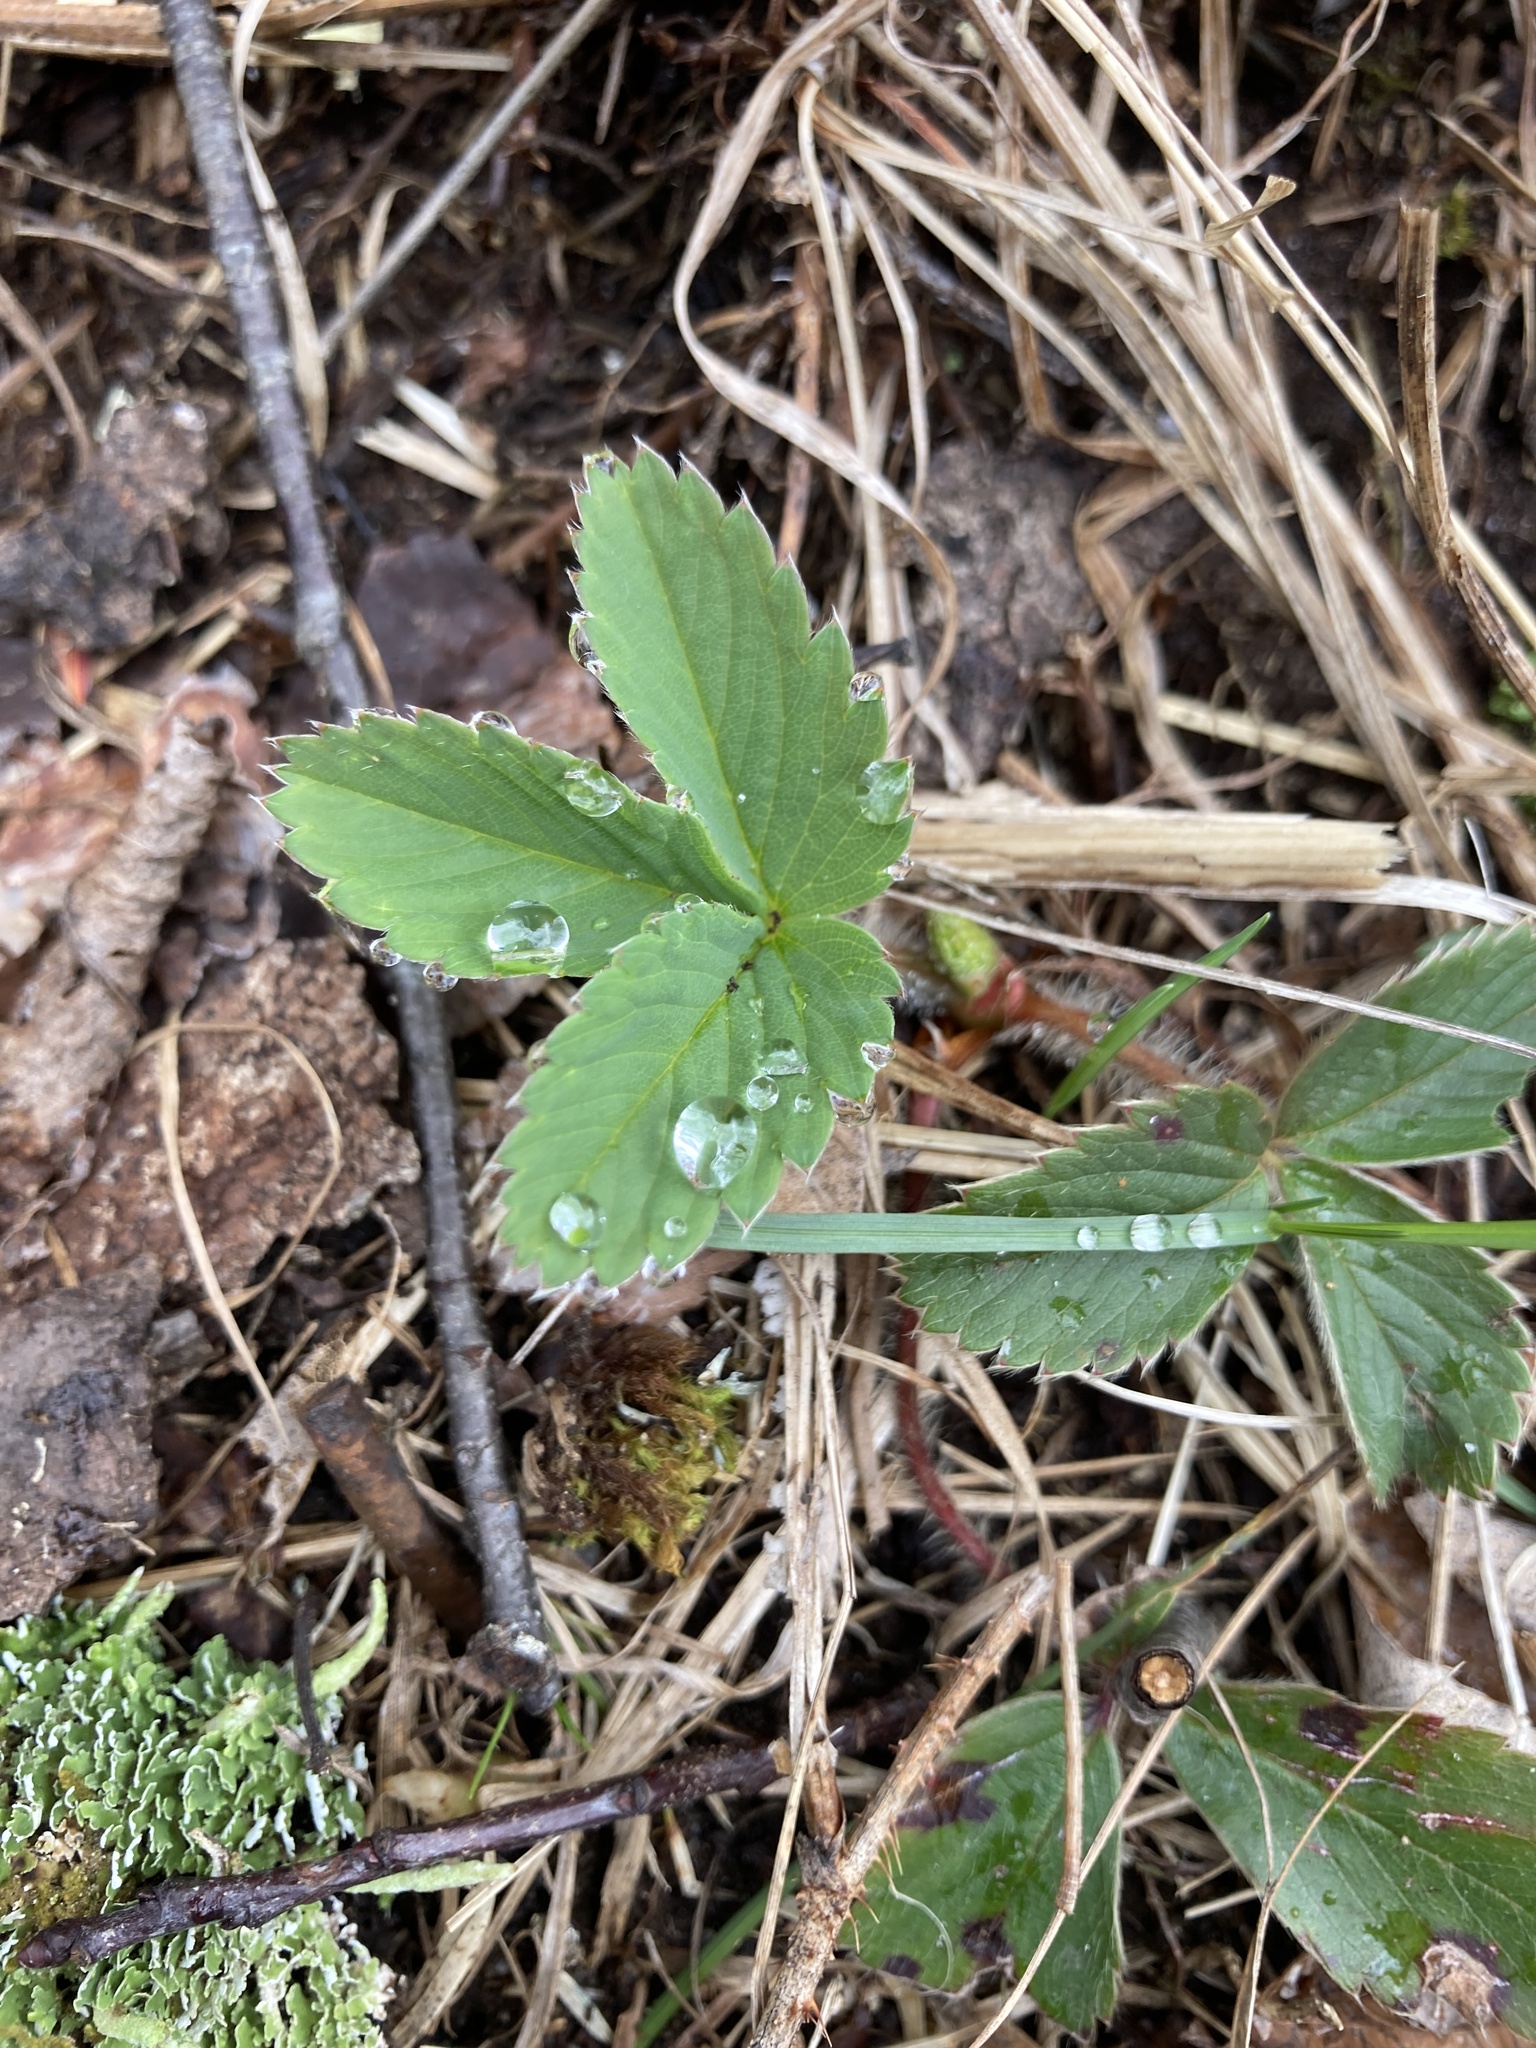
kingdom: Plantae
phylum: Tracheophyta
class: Magnoliopsida
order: Rosales
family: Rosaceae
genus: Fragaria
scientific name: Fragaria virginiana
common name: Thickleaved wild strawberry
